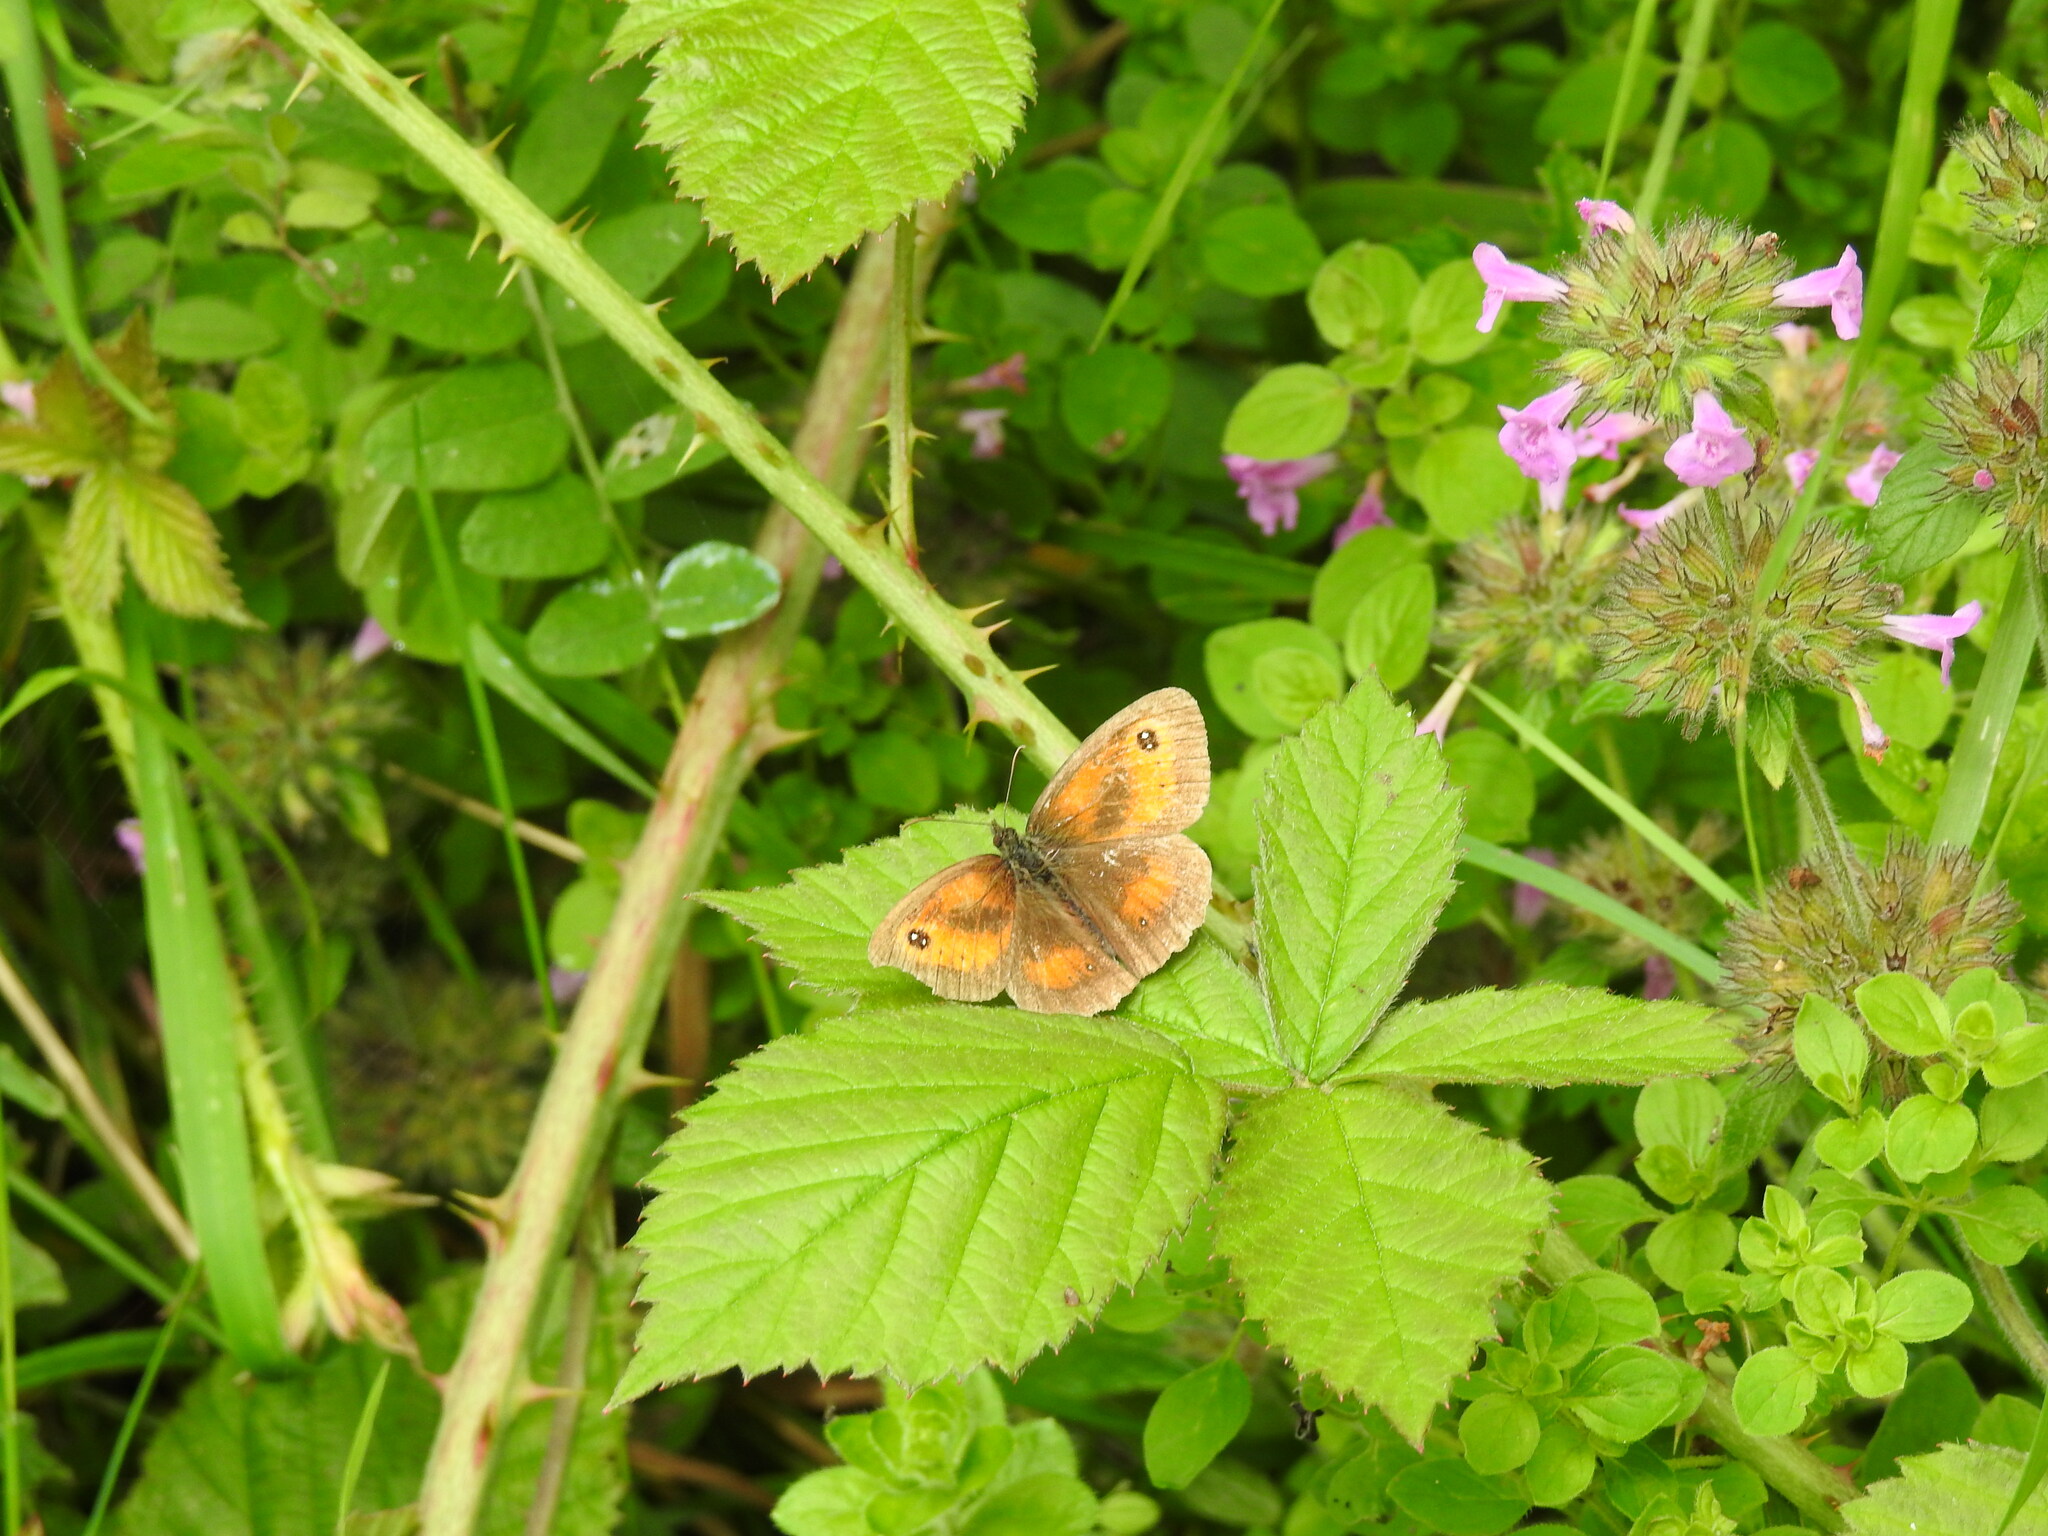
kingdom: Animalia
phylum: Arthropoda
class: Insecta
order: Lepidoptera
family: Nymphalidae
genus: Pyronia
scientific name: Pyronia tithonus
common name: Gatekeeper
